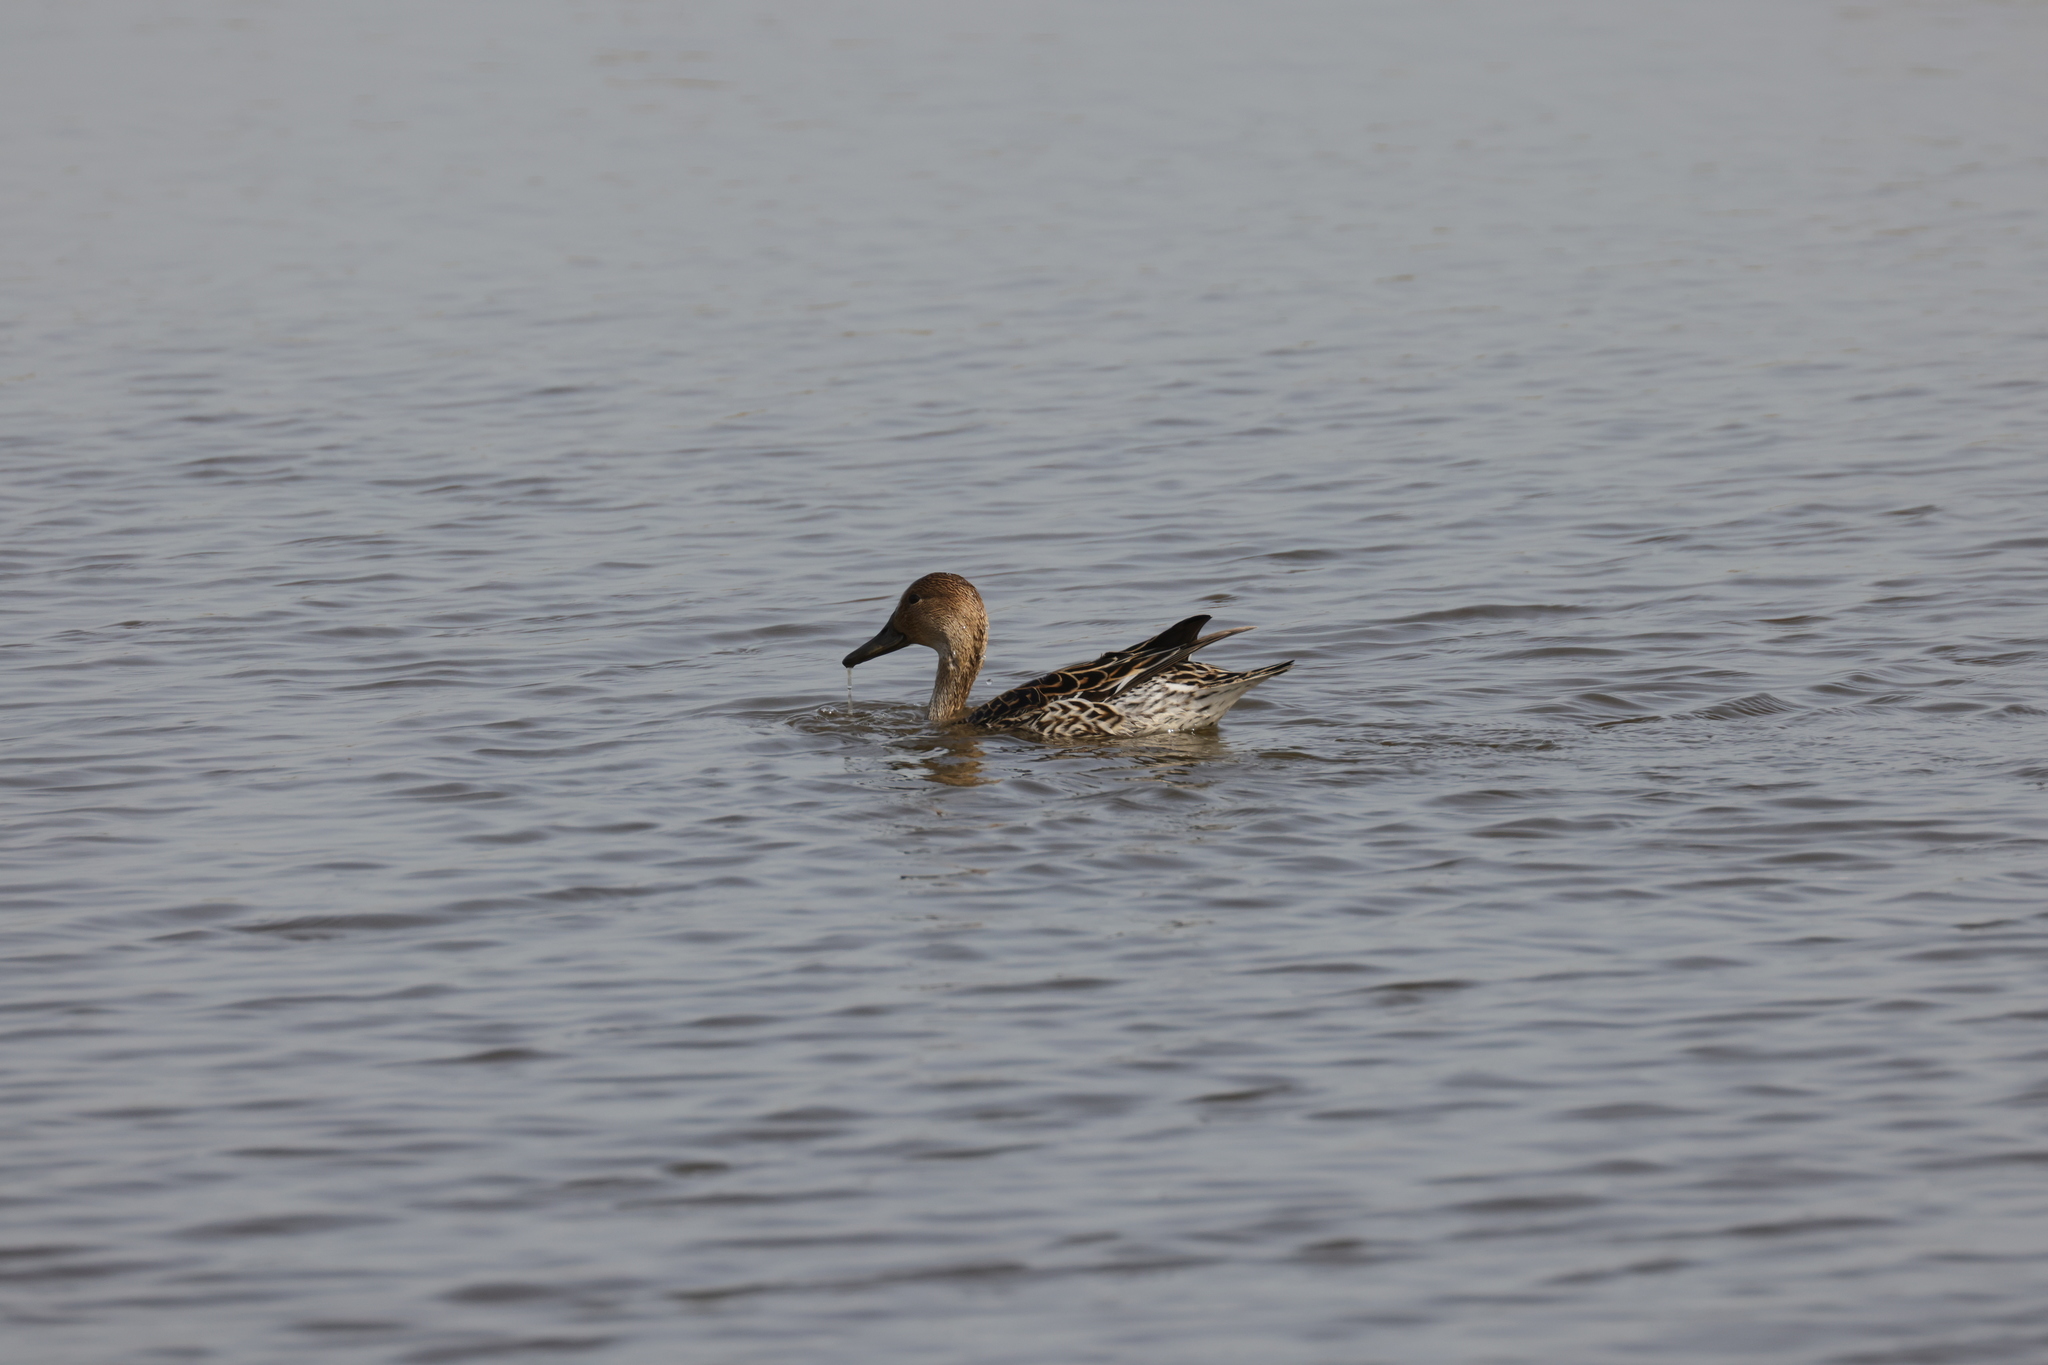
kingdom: Animalia
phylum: Chordata
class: Aves
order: Anseriformes
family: Anatidae
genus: Anas
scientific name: Anas acuta
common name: Northern pintail
